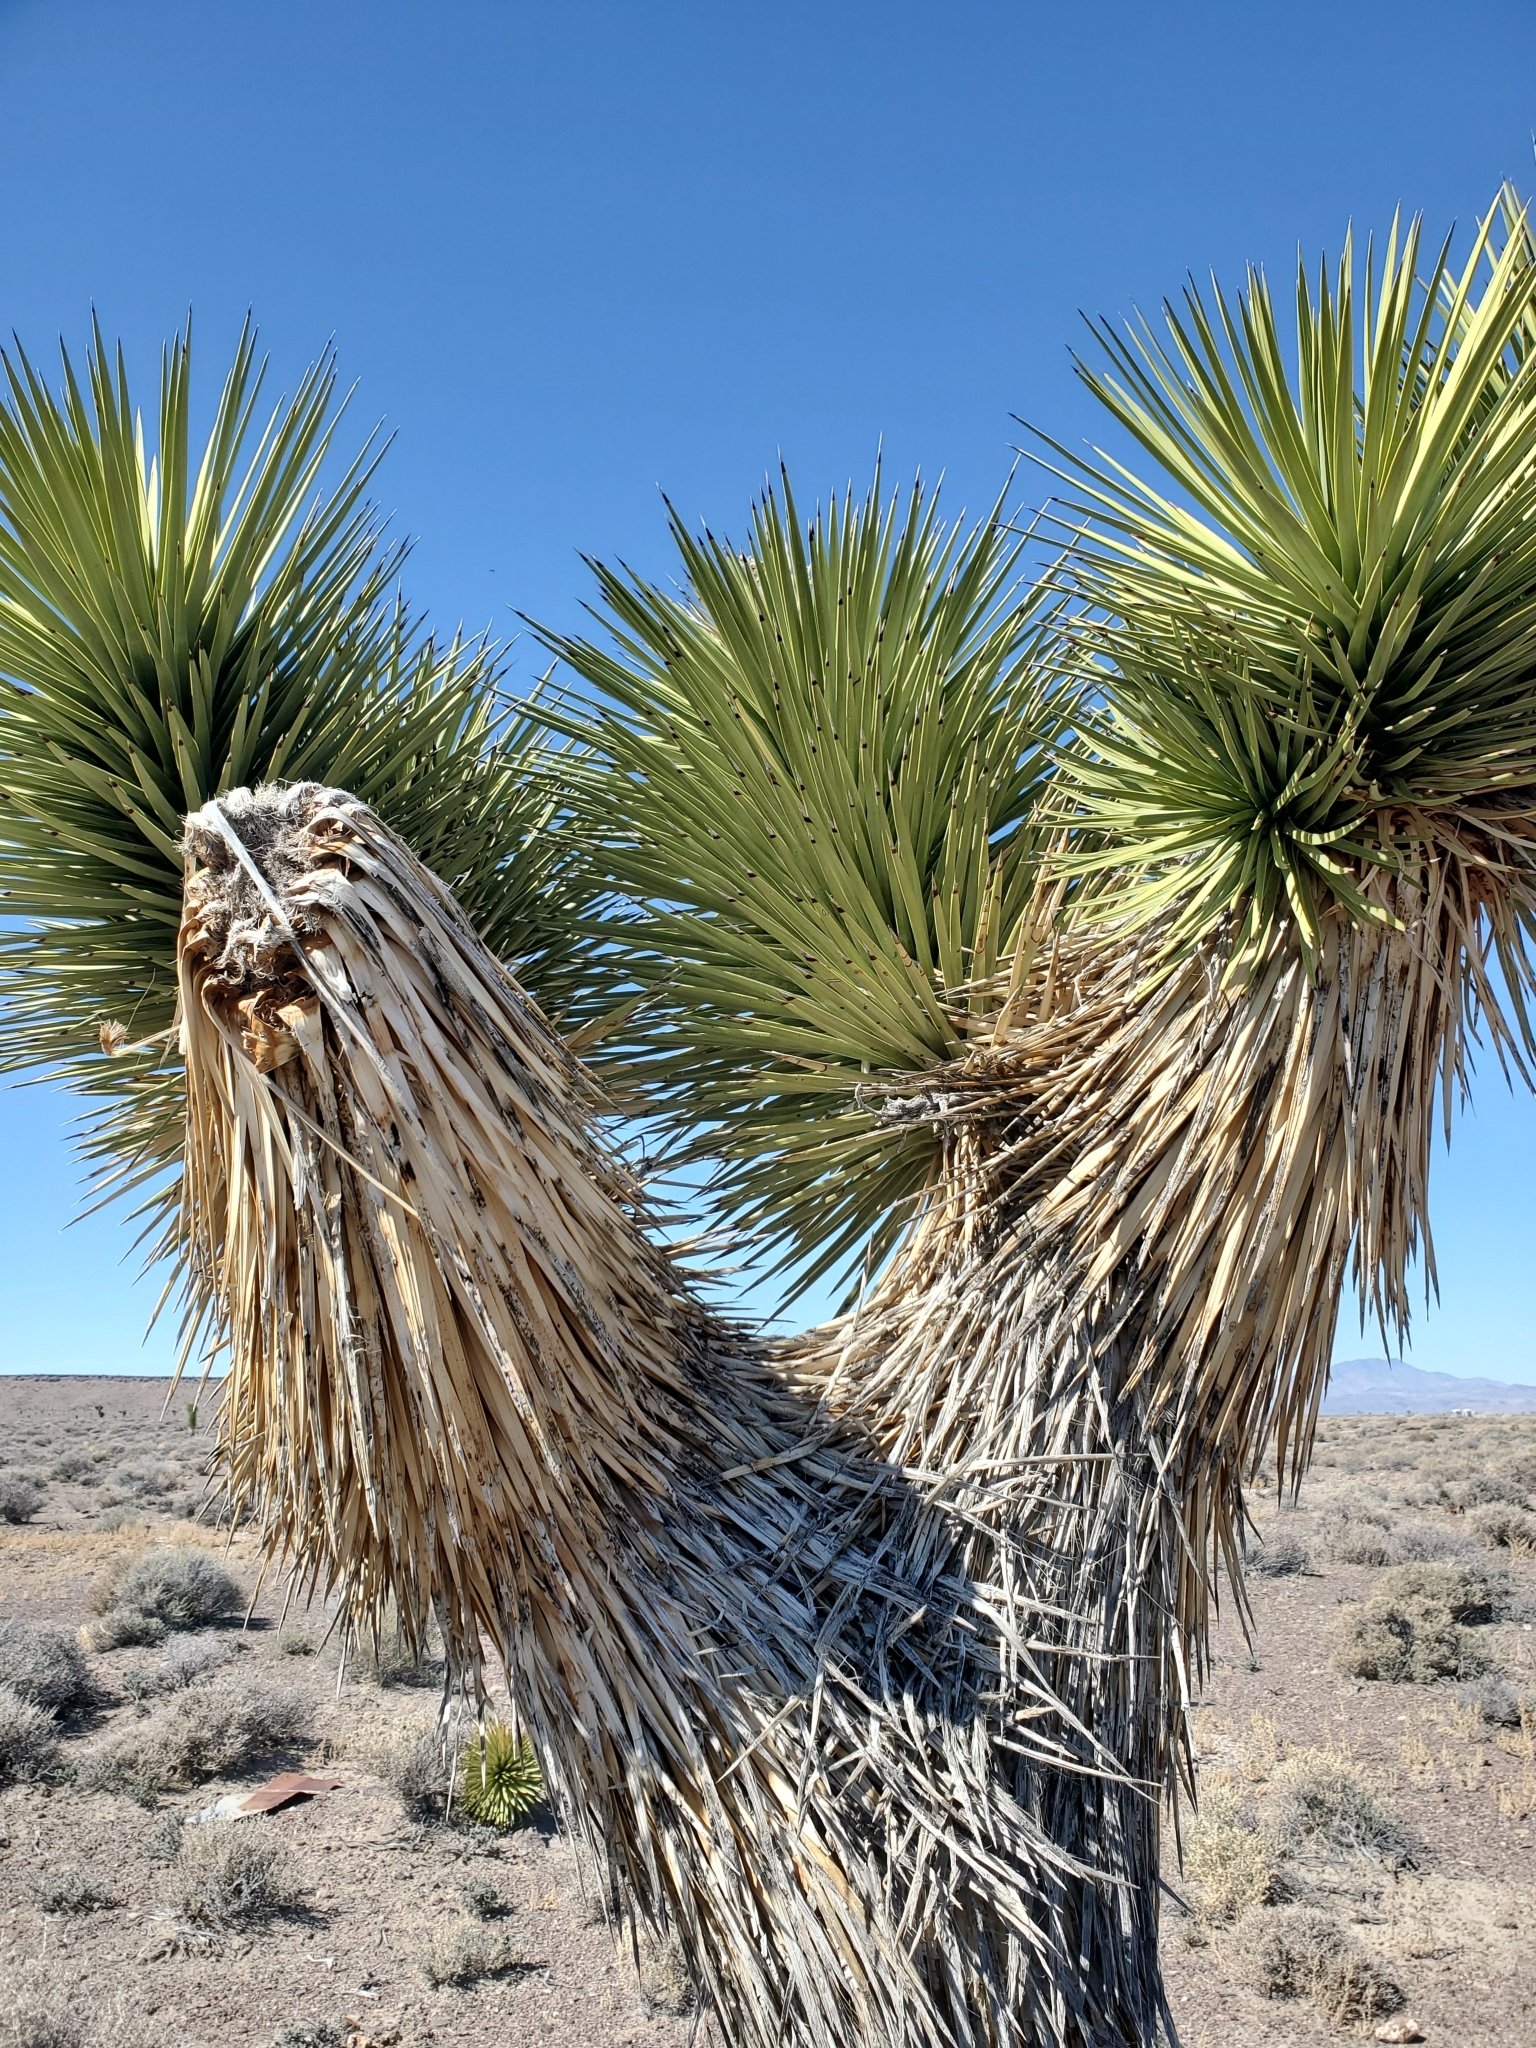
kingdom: Plantae
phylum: Tracheophyta
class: Liliopsida
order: Asparagales
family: Asparagaceae
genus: Yucca
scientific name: Yucca brevifolia
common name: Joshua tree
